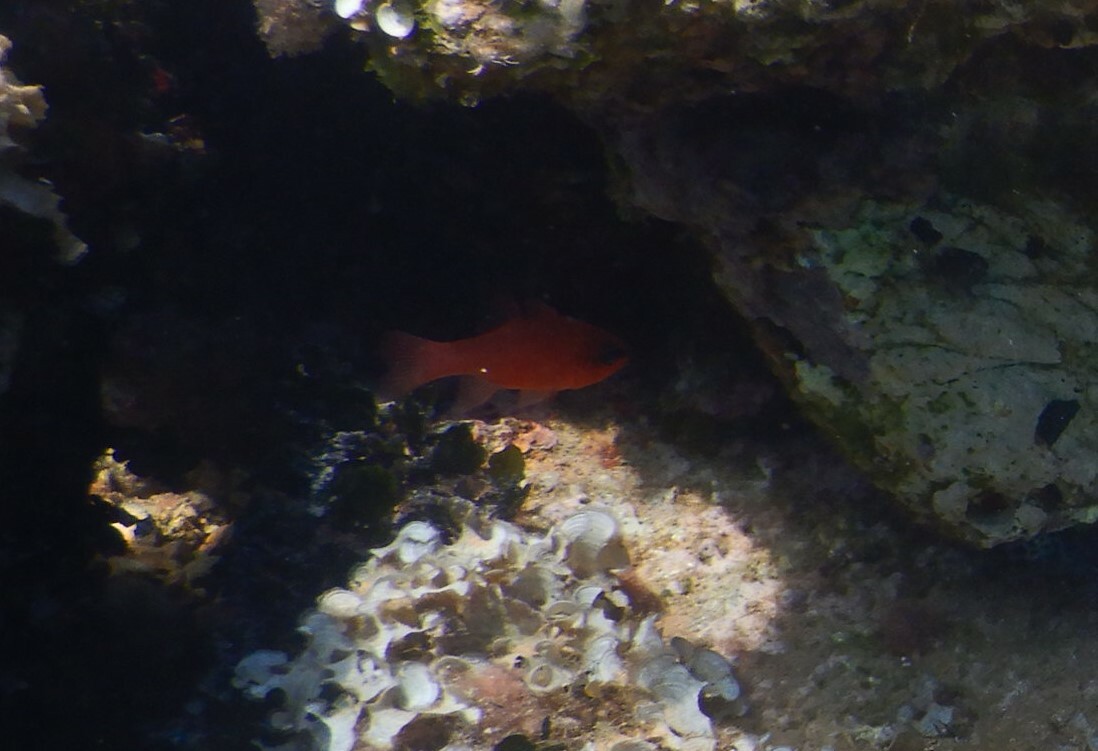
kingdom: Animalia
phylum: Chordata
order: Perciformes
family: Apogonidae
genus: Apogon
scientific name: Apogon imberbis
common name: Cardinal fish
